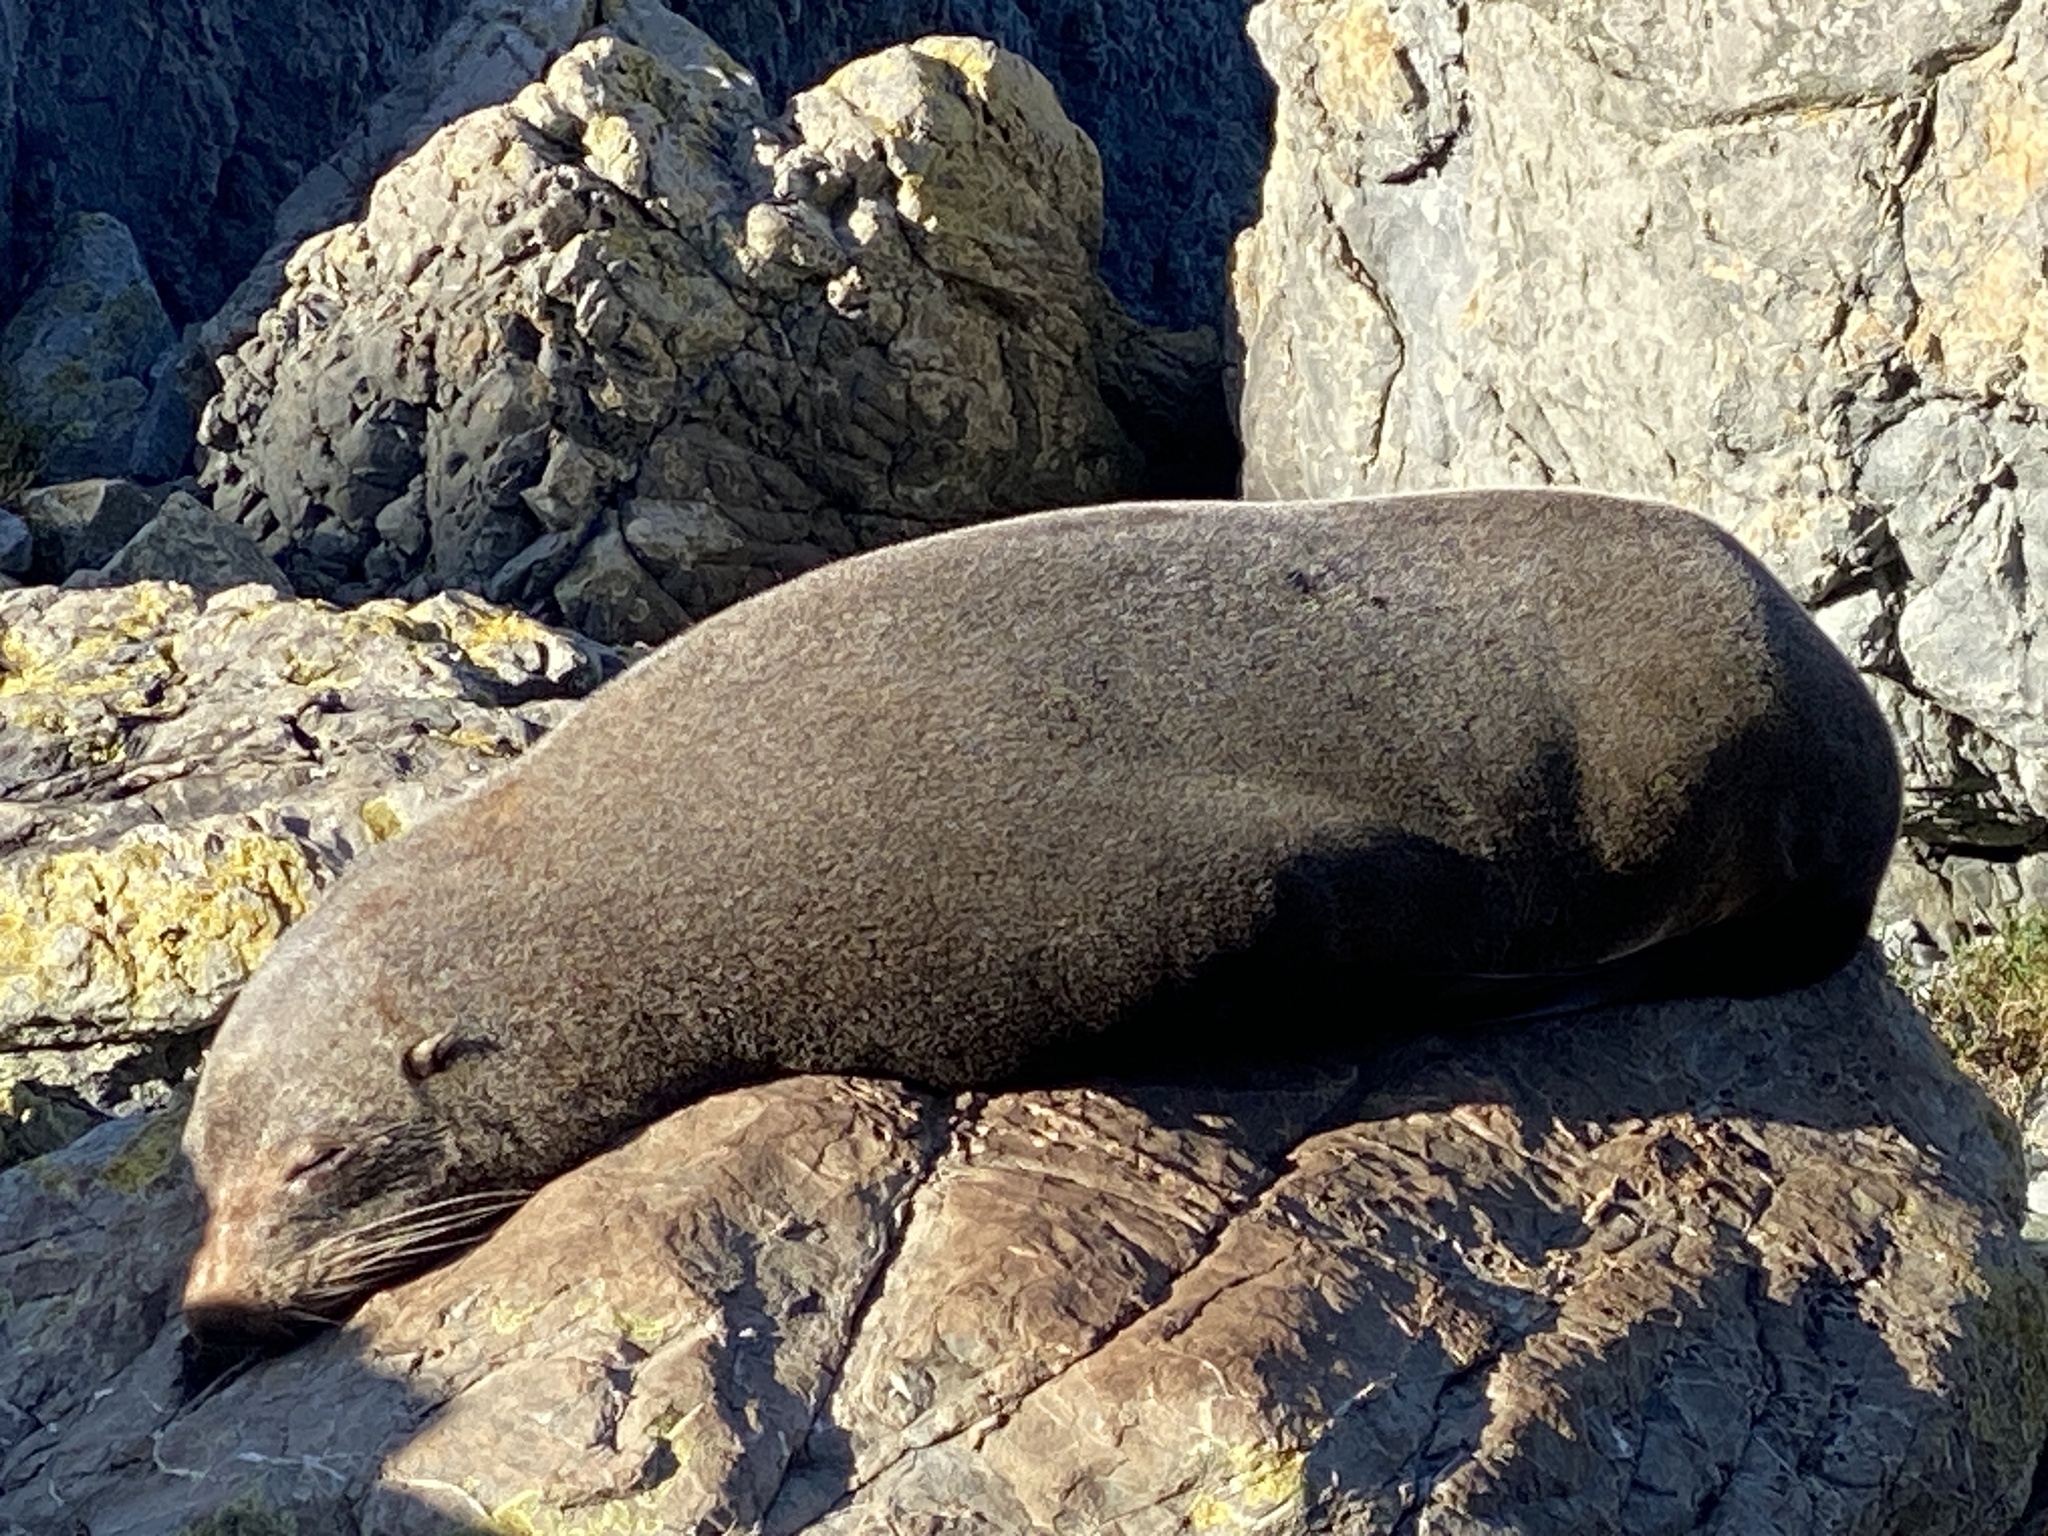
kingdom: Animalia
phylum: Chordata
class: Mammalia
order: Carnivora
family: Otariidae
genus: Arctocephalus
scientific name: Arctocephalus forsteri
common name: New zealand fur seal
